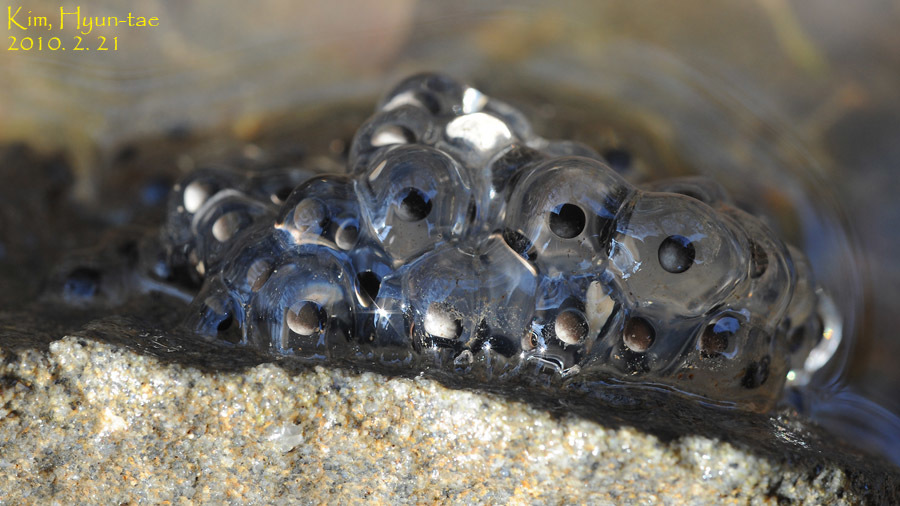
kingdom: Animalia
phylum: Chordata
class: Amphibia
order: Anura
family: Ranidae
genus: Rana
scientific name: Rana huanrenensis
